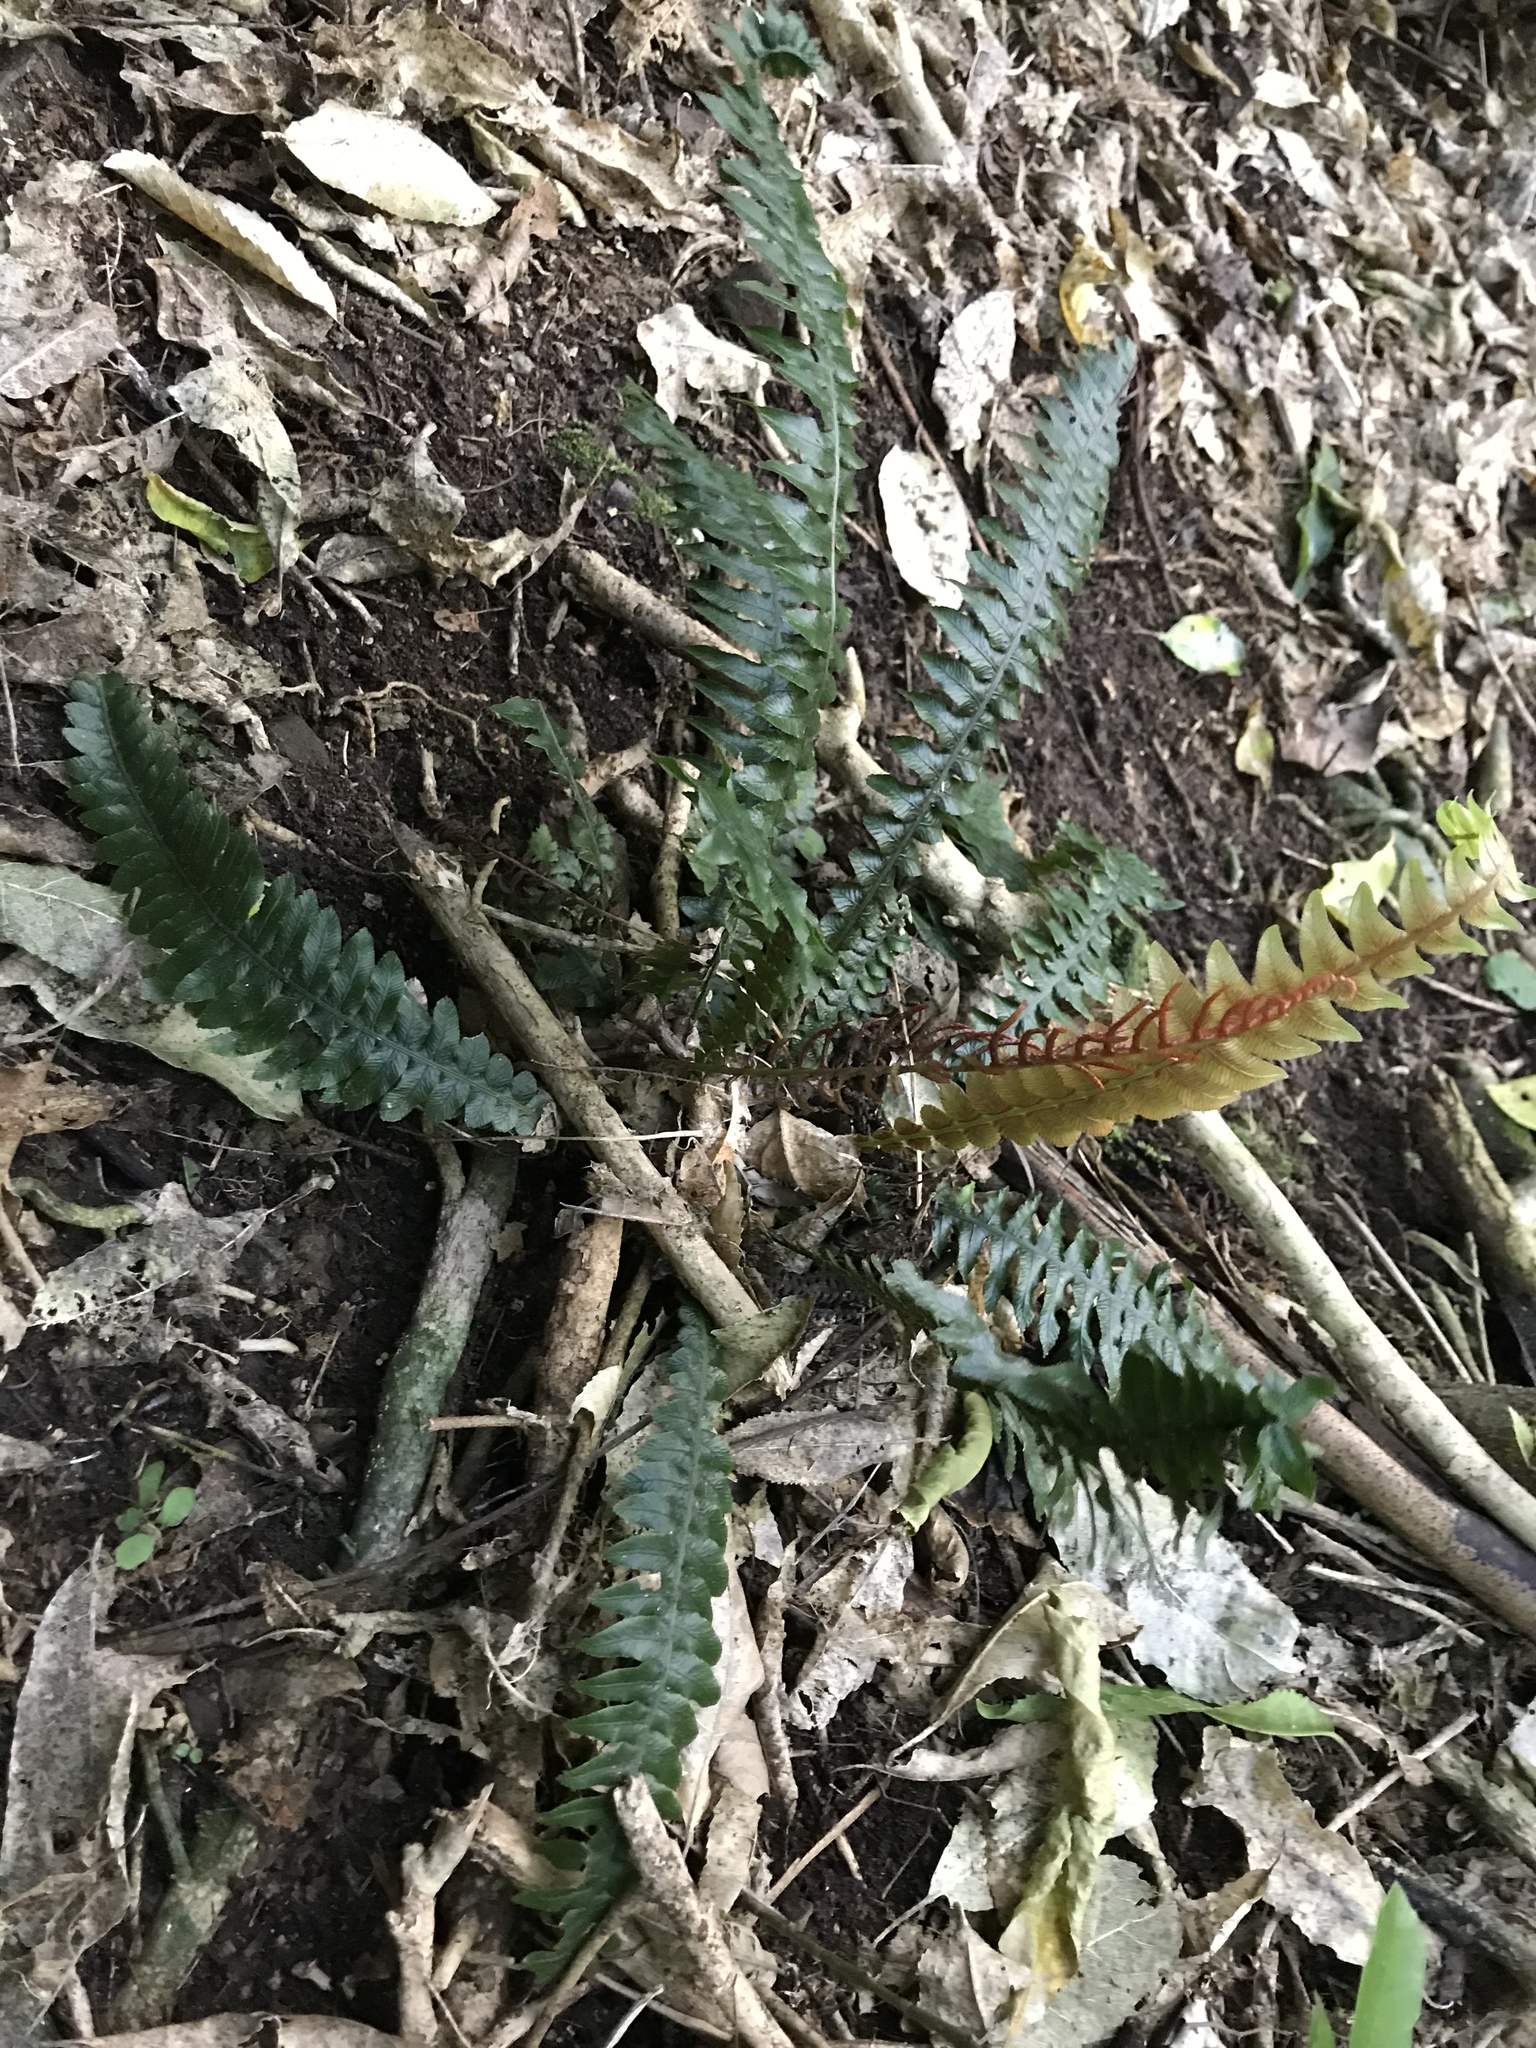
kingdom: Plantae
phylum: Tracheophyta
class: Polypodiopsida
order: Polypodiales
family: Blechnaceae
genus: Austroblechnum
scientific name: Austroblechnum lanceolatum
